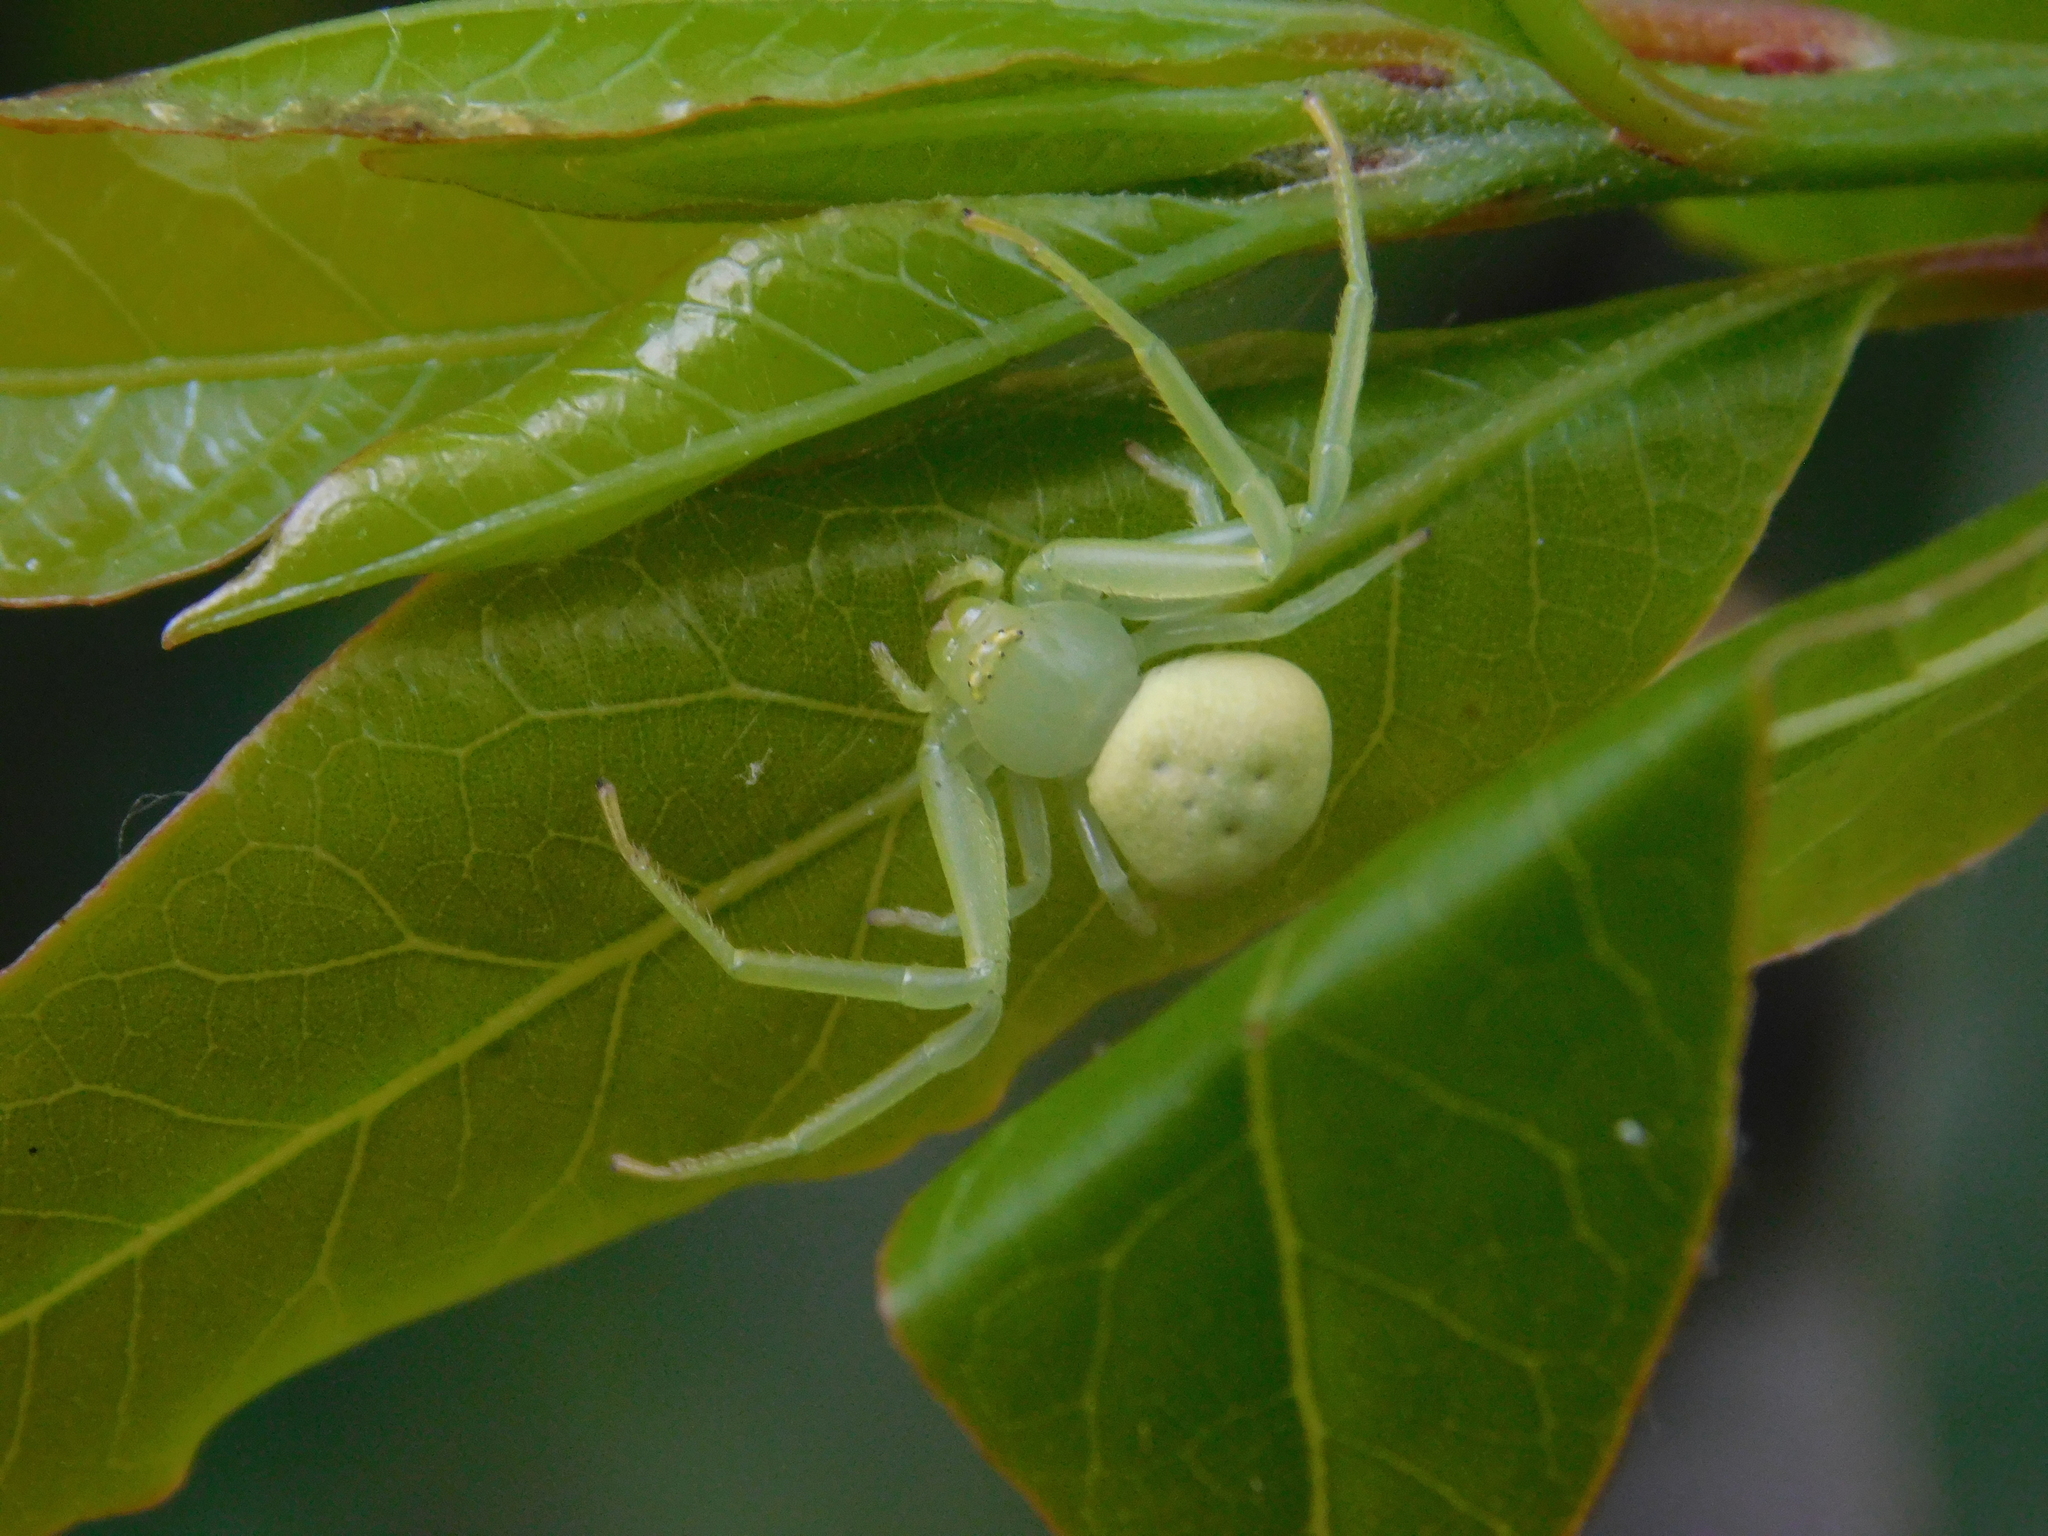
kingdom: Animalia
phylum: Arthropoda
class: Arachnida
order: Araneae
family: Thomisidae
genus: Misumenops
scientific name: Misumenops
